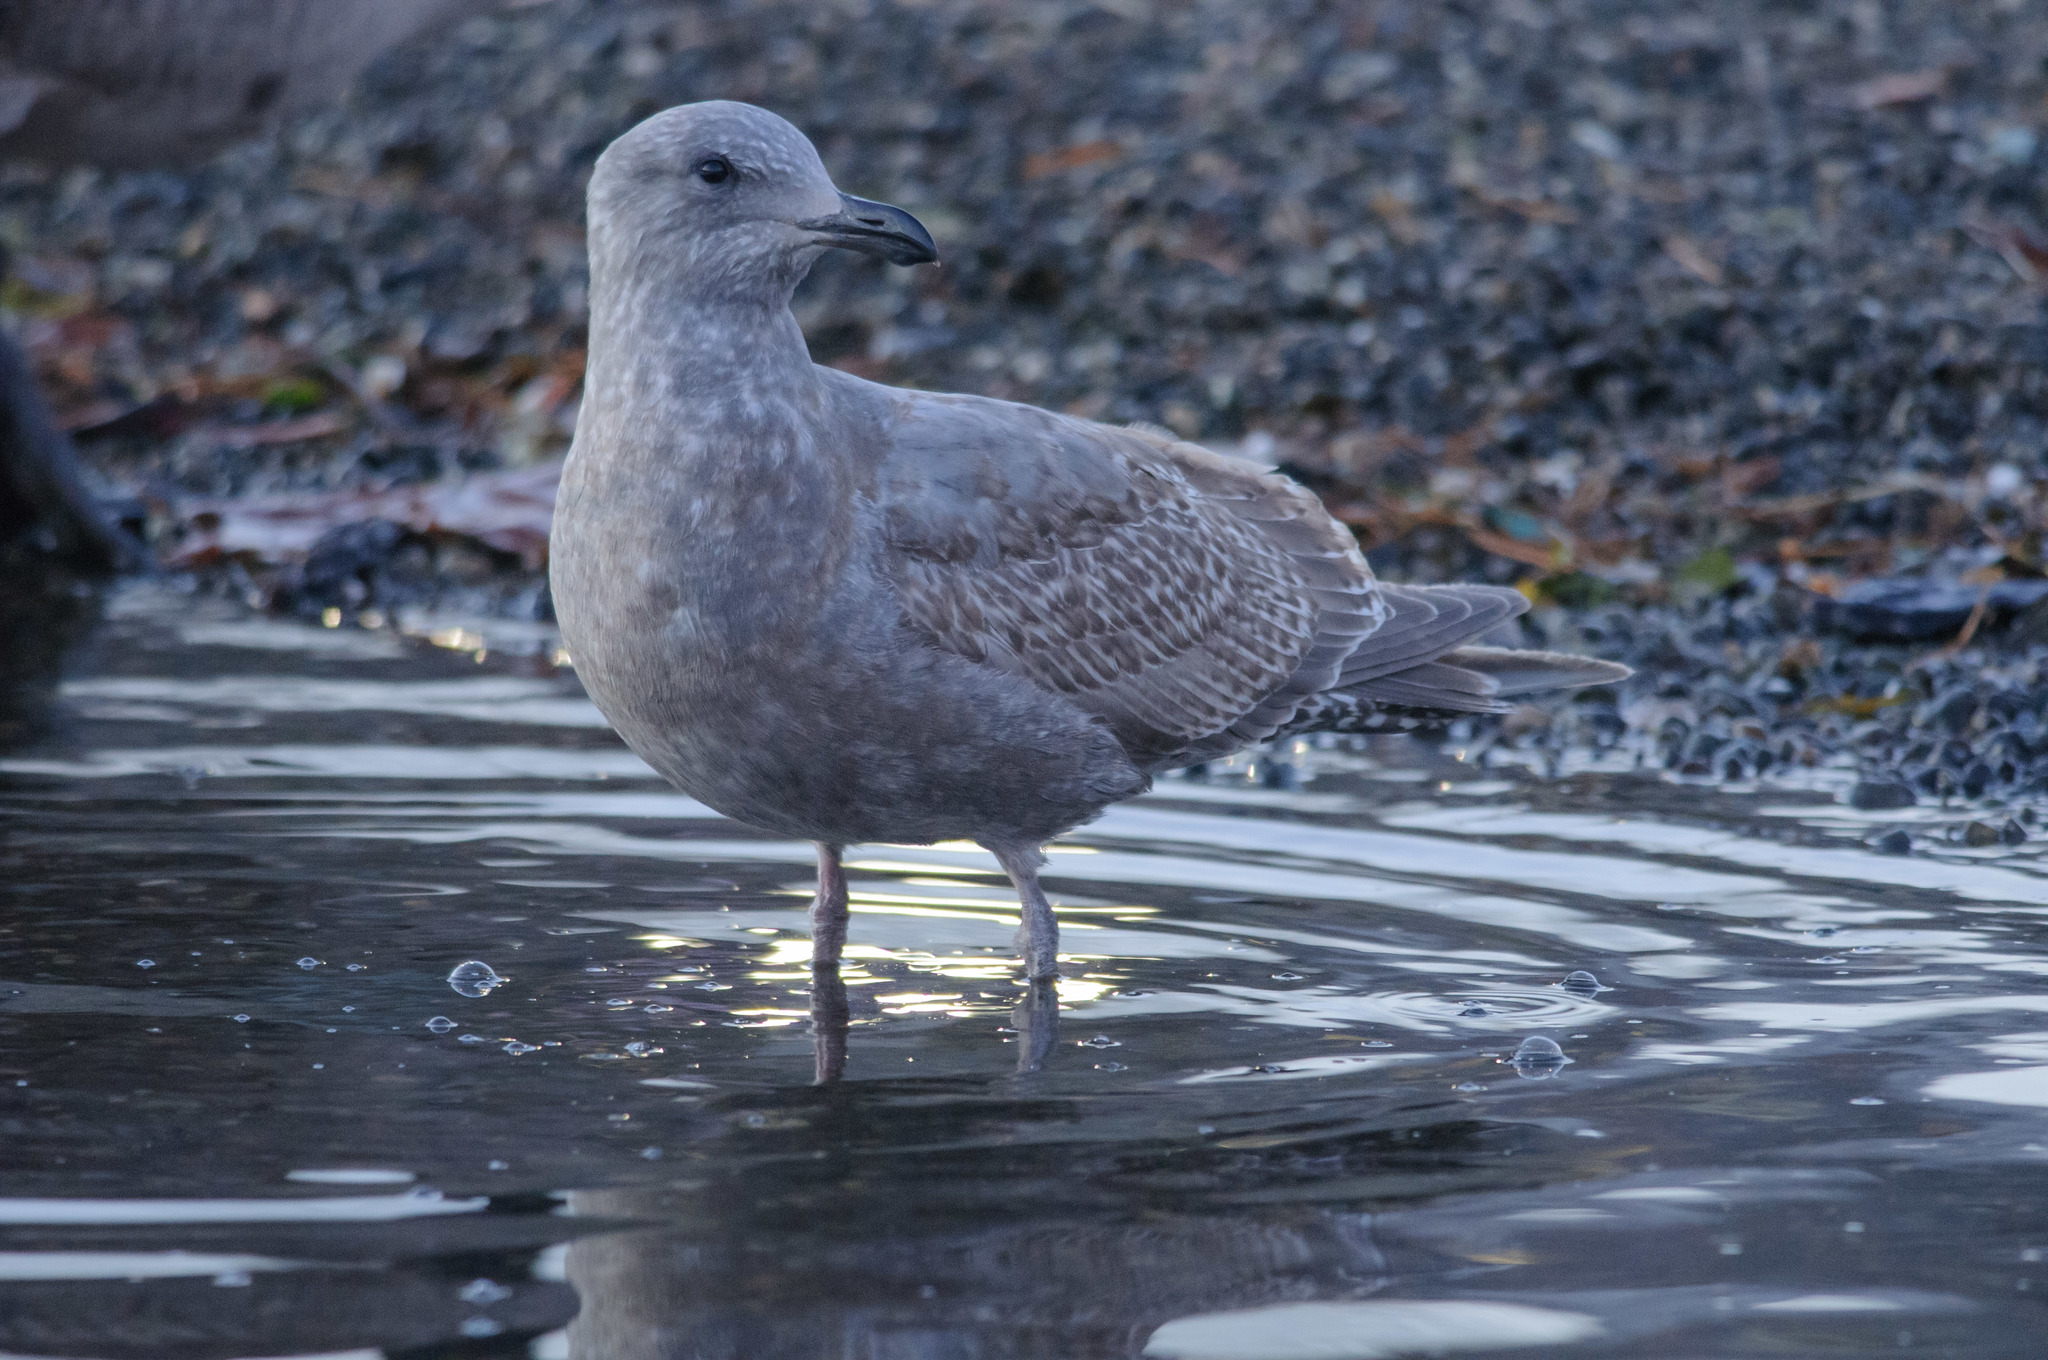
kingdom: Animalia
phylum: Chordata
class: Aves
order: Charadriiformes
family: Laridae
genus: Larus
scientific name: Larus
